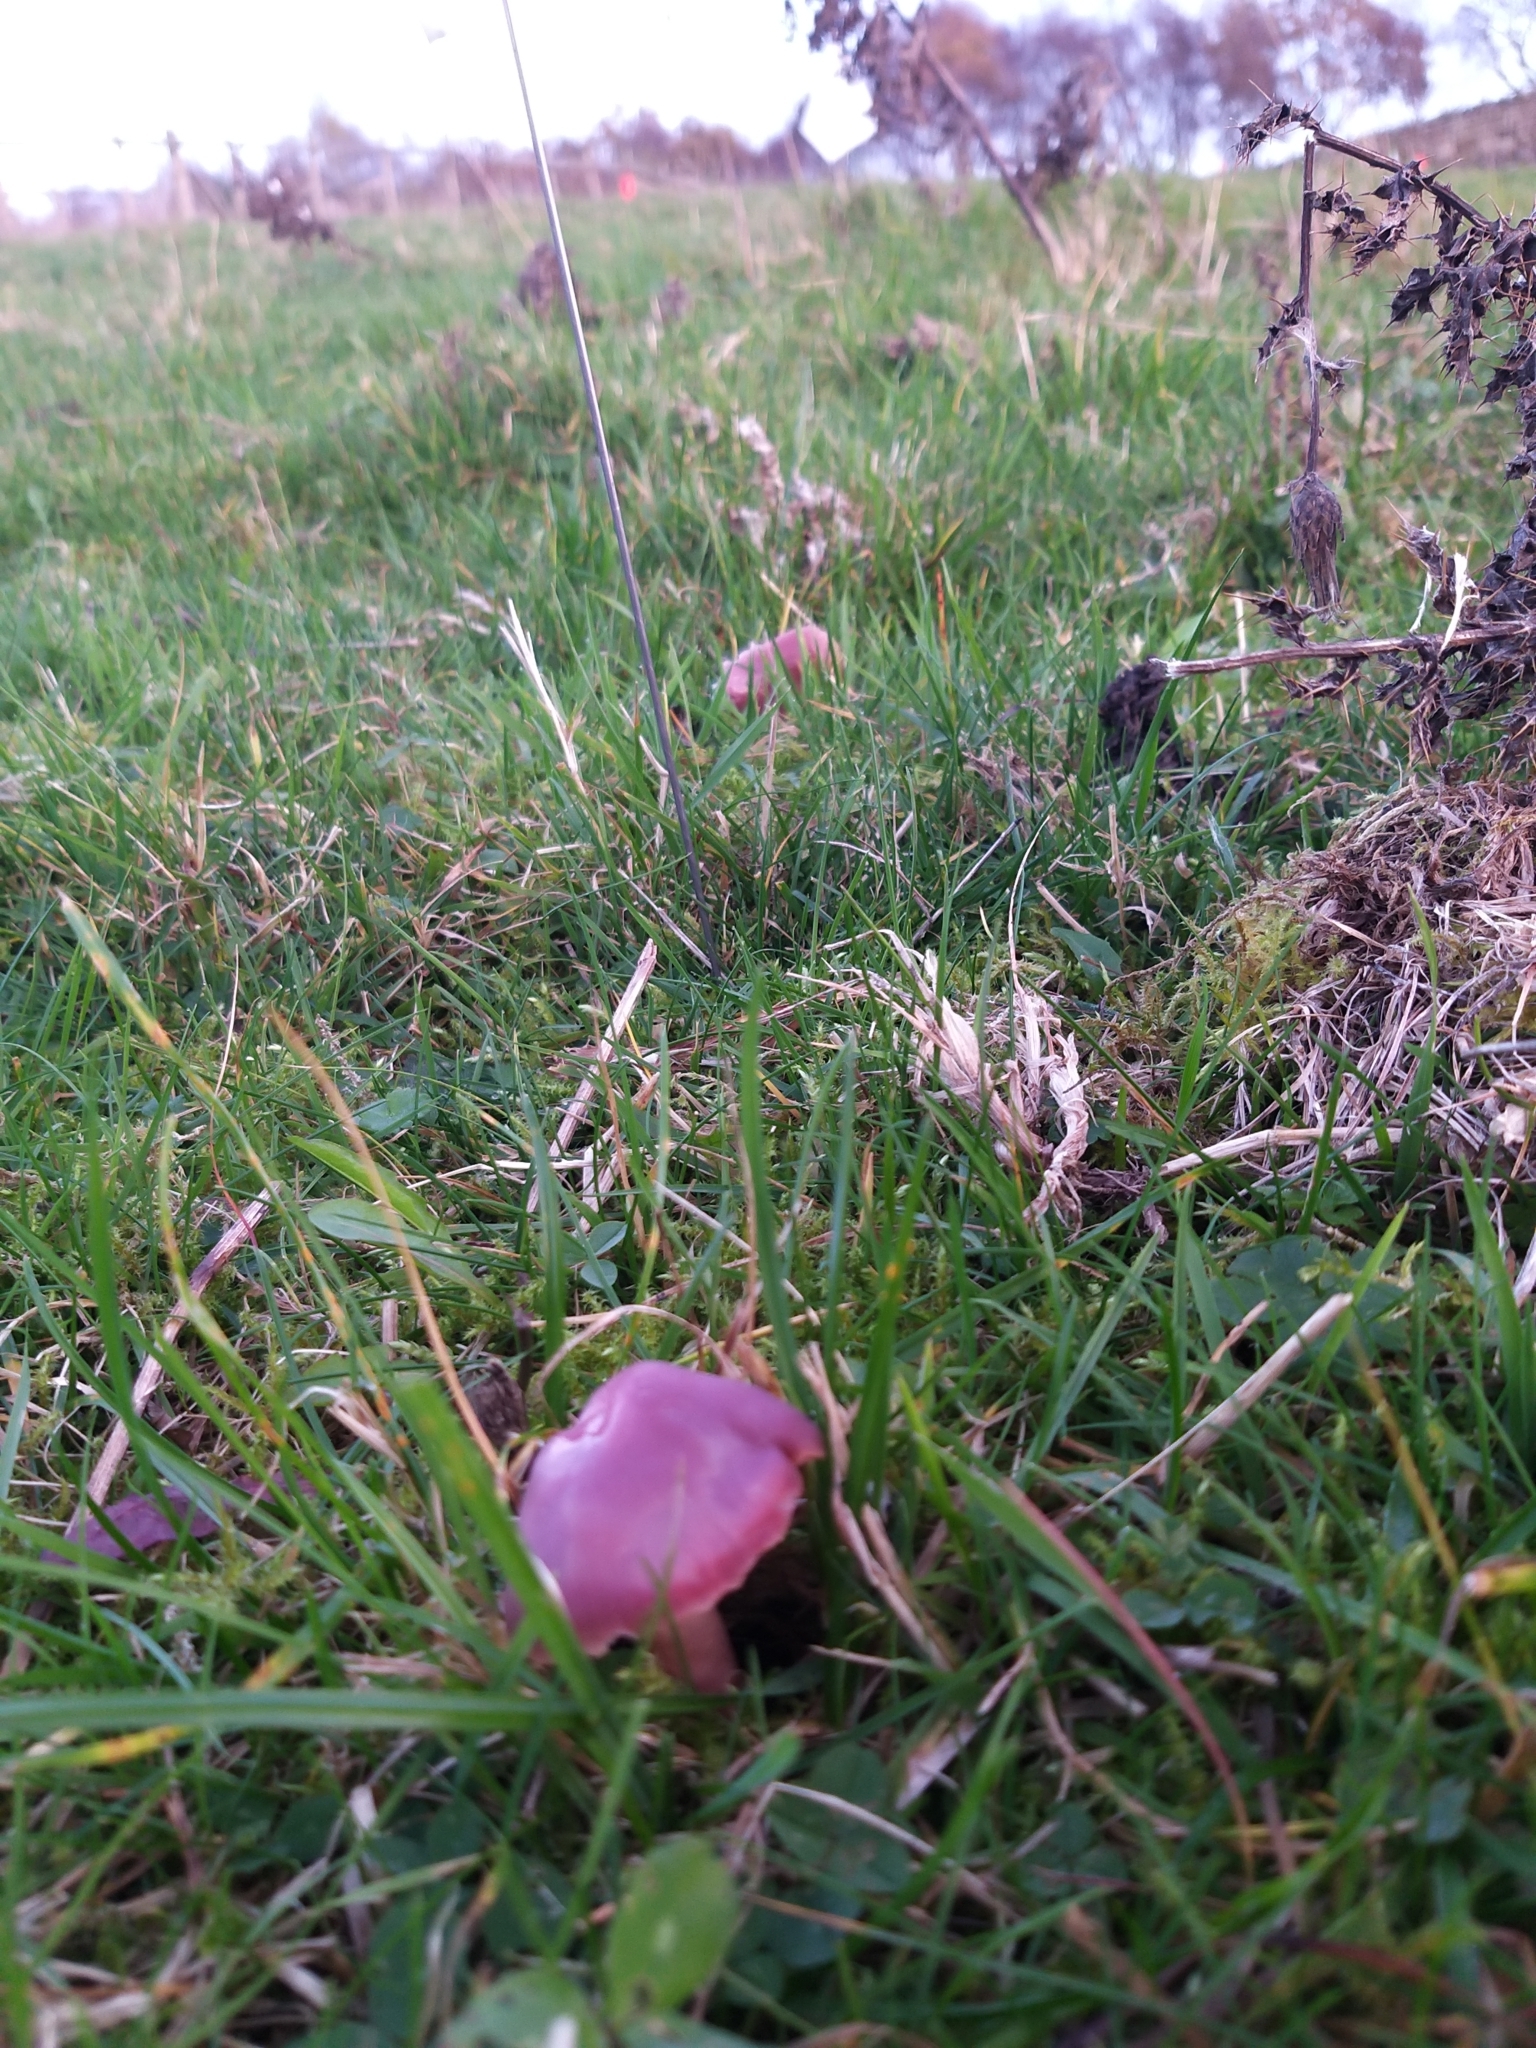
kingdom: Fungi
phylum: Basidiomycota
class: Agaricomycetes
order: Agaricales
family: Hygrophoraceae
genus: Gliophorus
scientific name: Gliophorus reginae
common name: Jubilee waxcap
